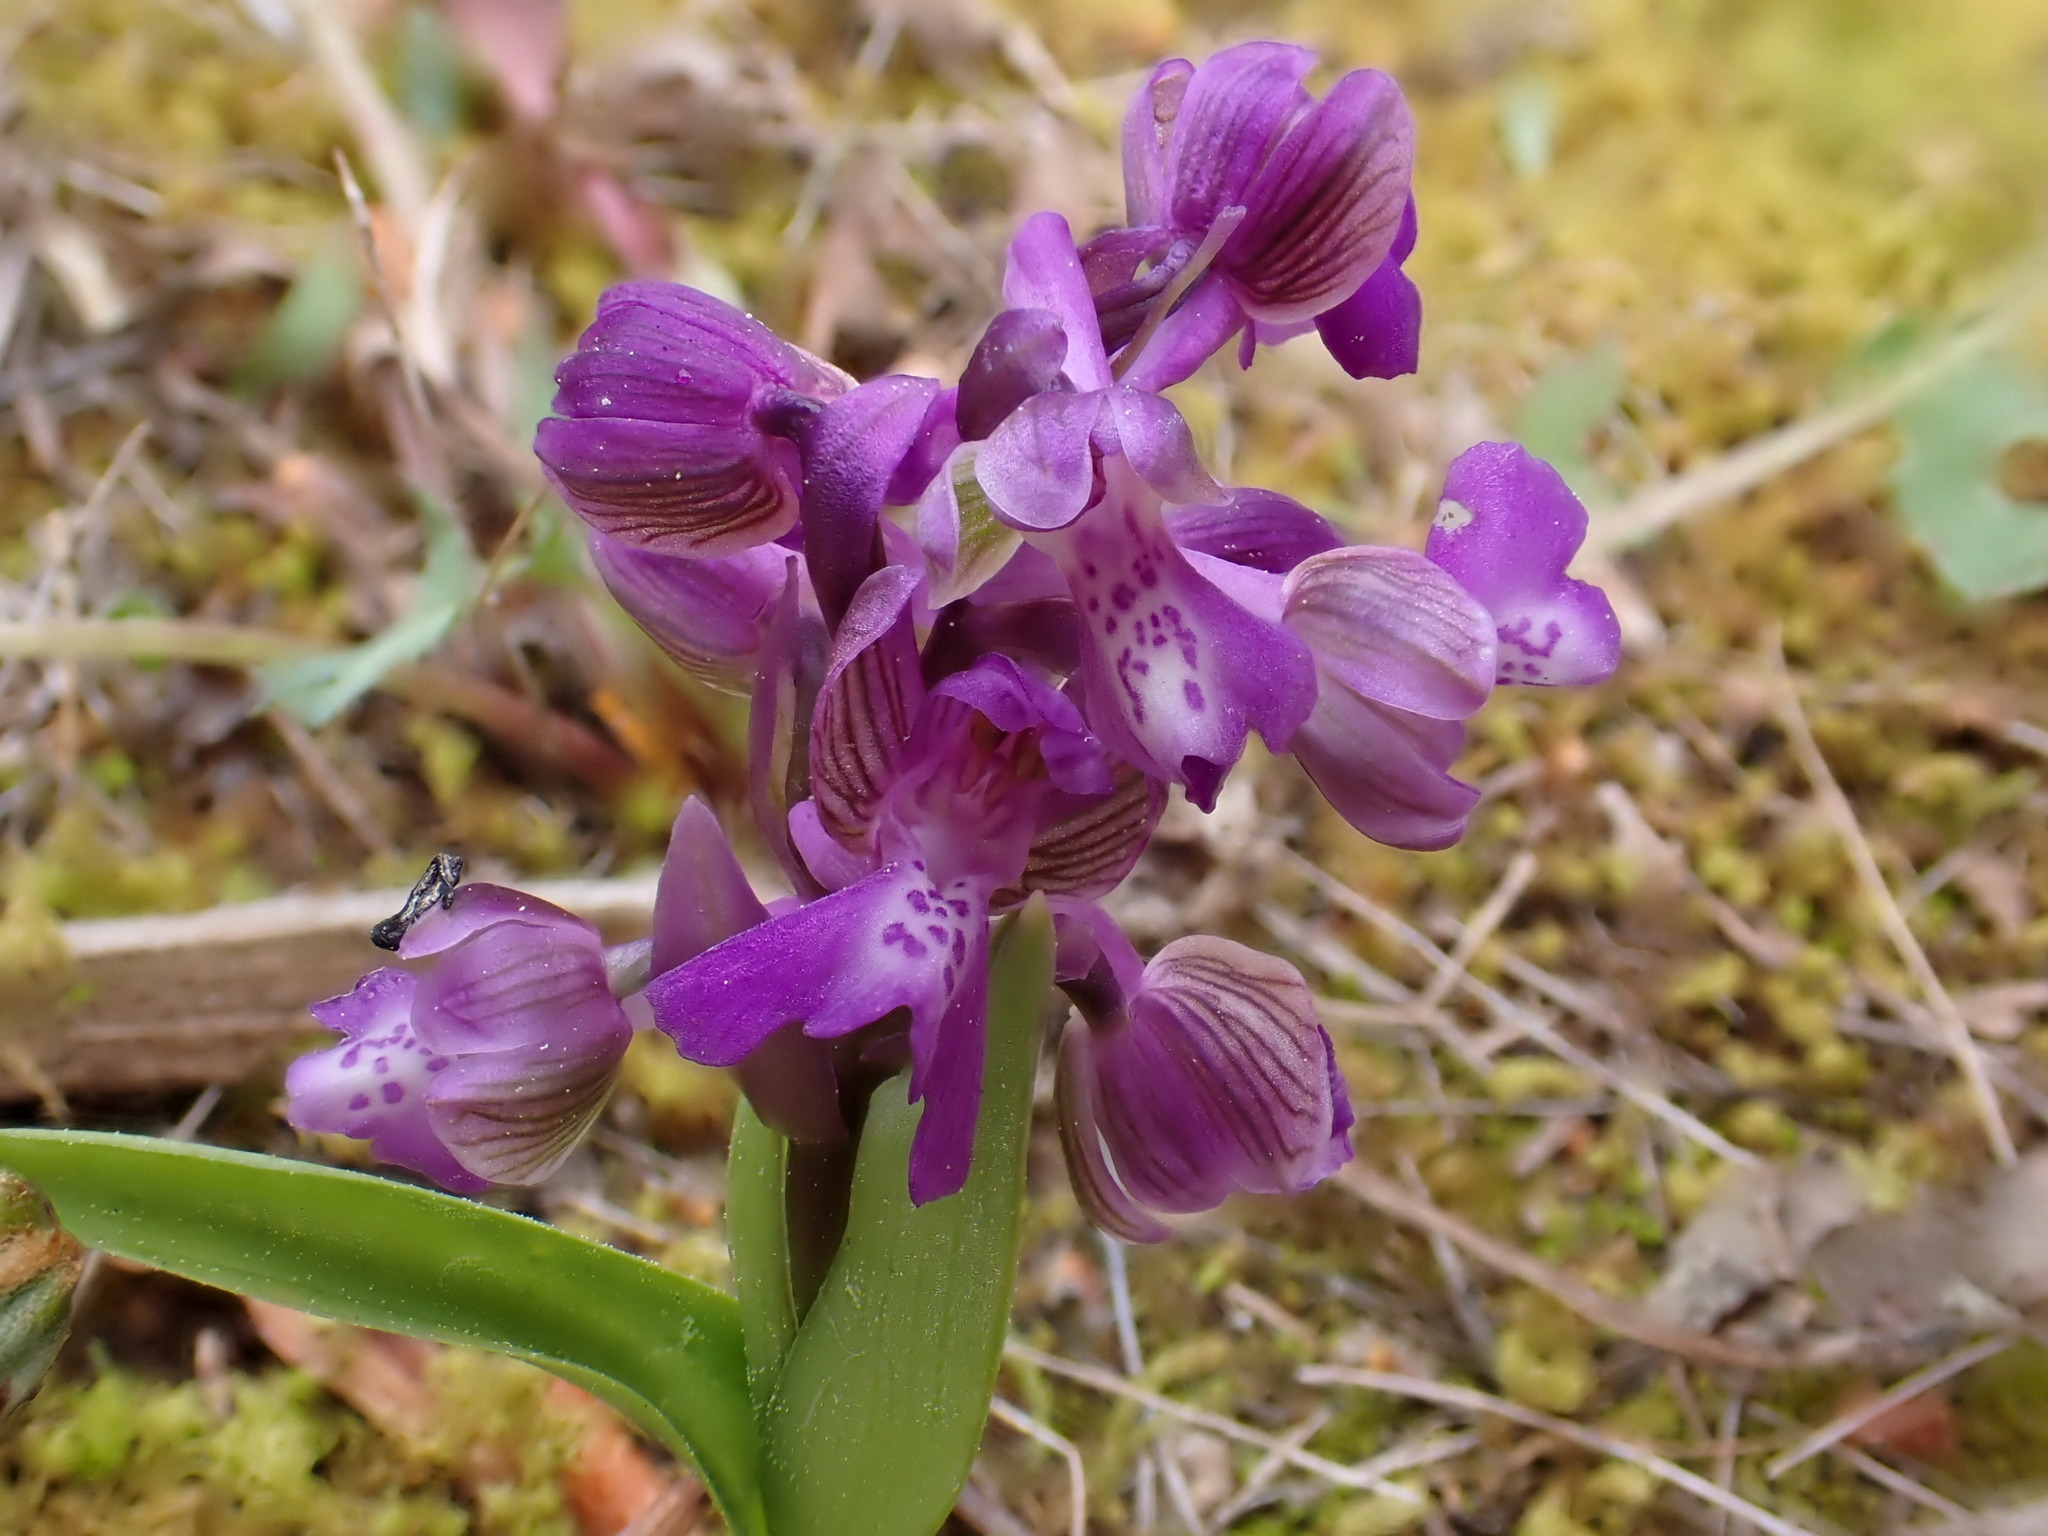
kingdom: Plantae
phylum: Tracheophyta
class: Liliopsida
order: Asparagales
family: Orchidaceae
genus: Anacamptis
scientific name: Anacamptis morio
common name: Green-winged orchid
